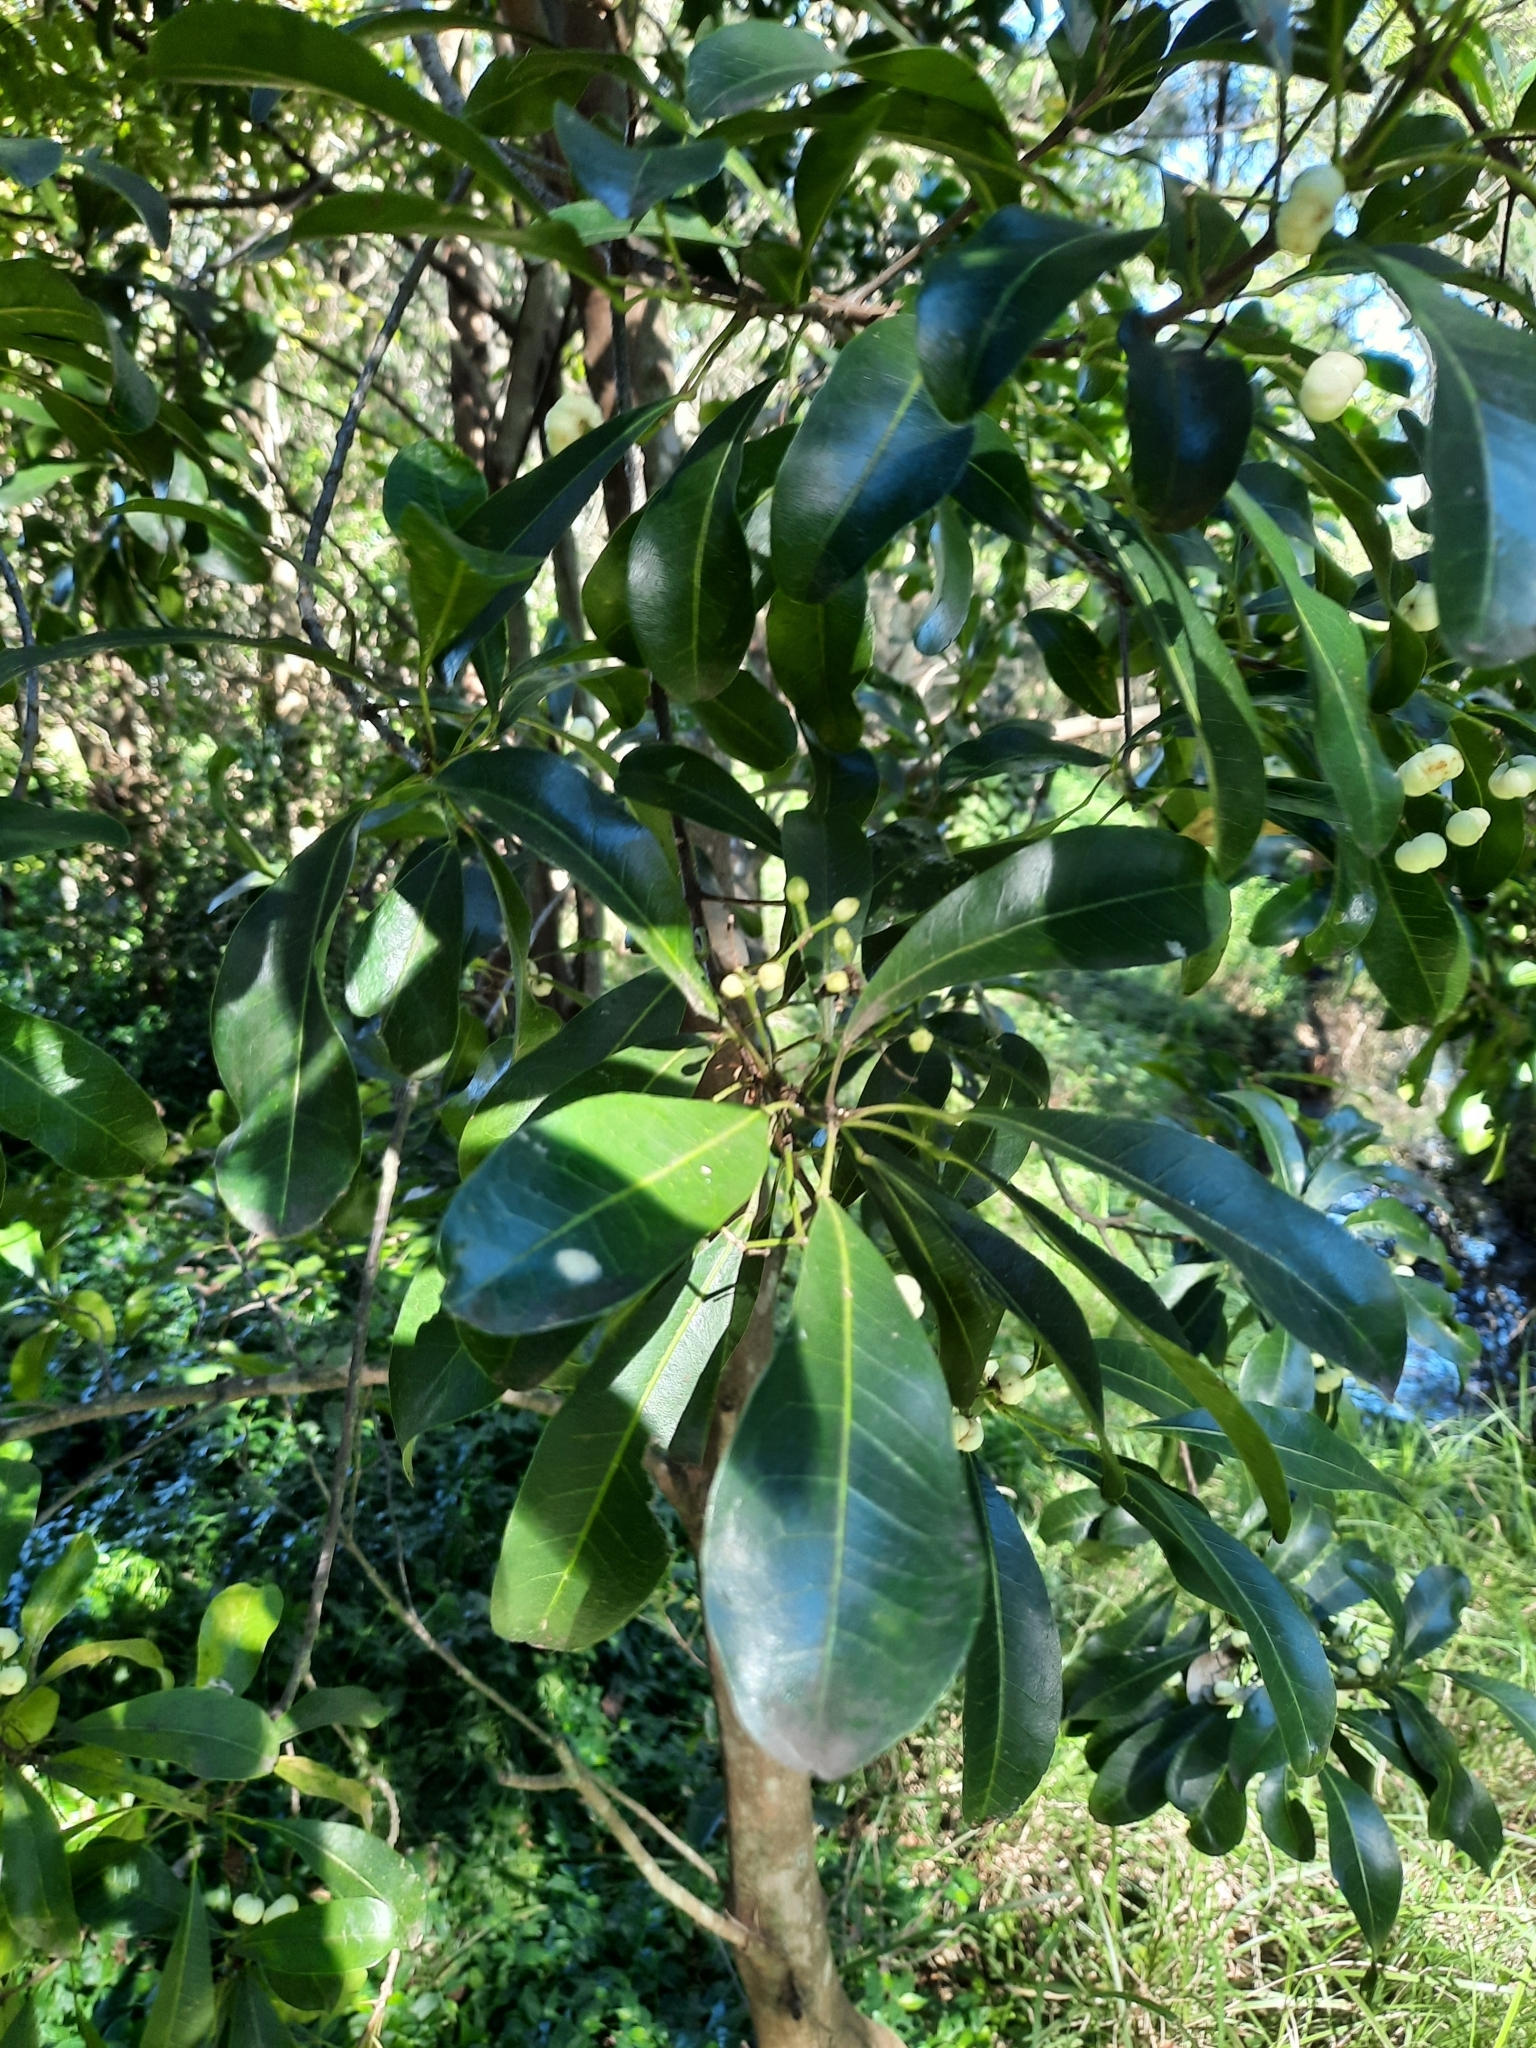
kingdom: Plantae
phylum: Tracheophyta
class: Magnoliopsida
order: Sapindales
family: Rutaceae
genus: Acronychia
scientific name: Acronychia oblongifolia
